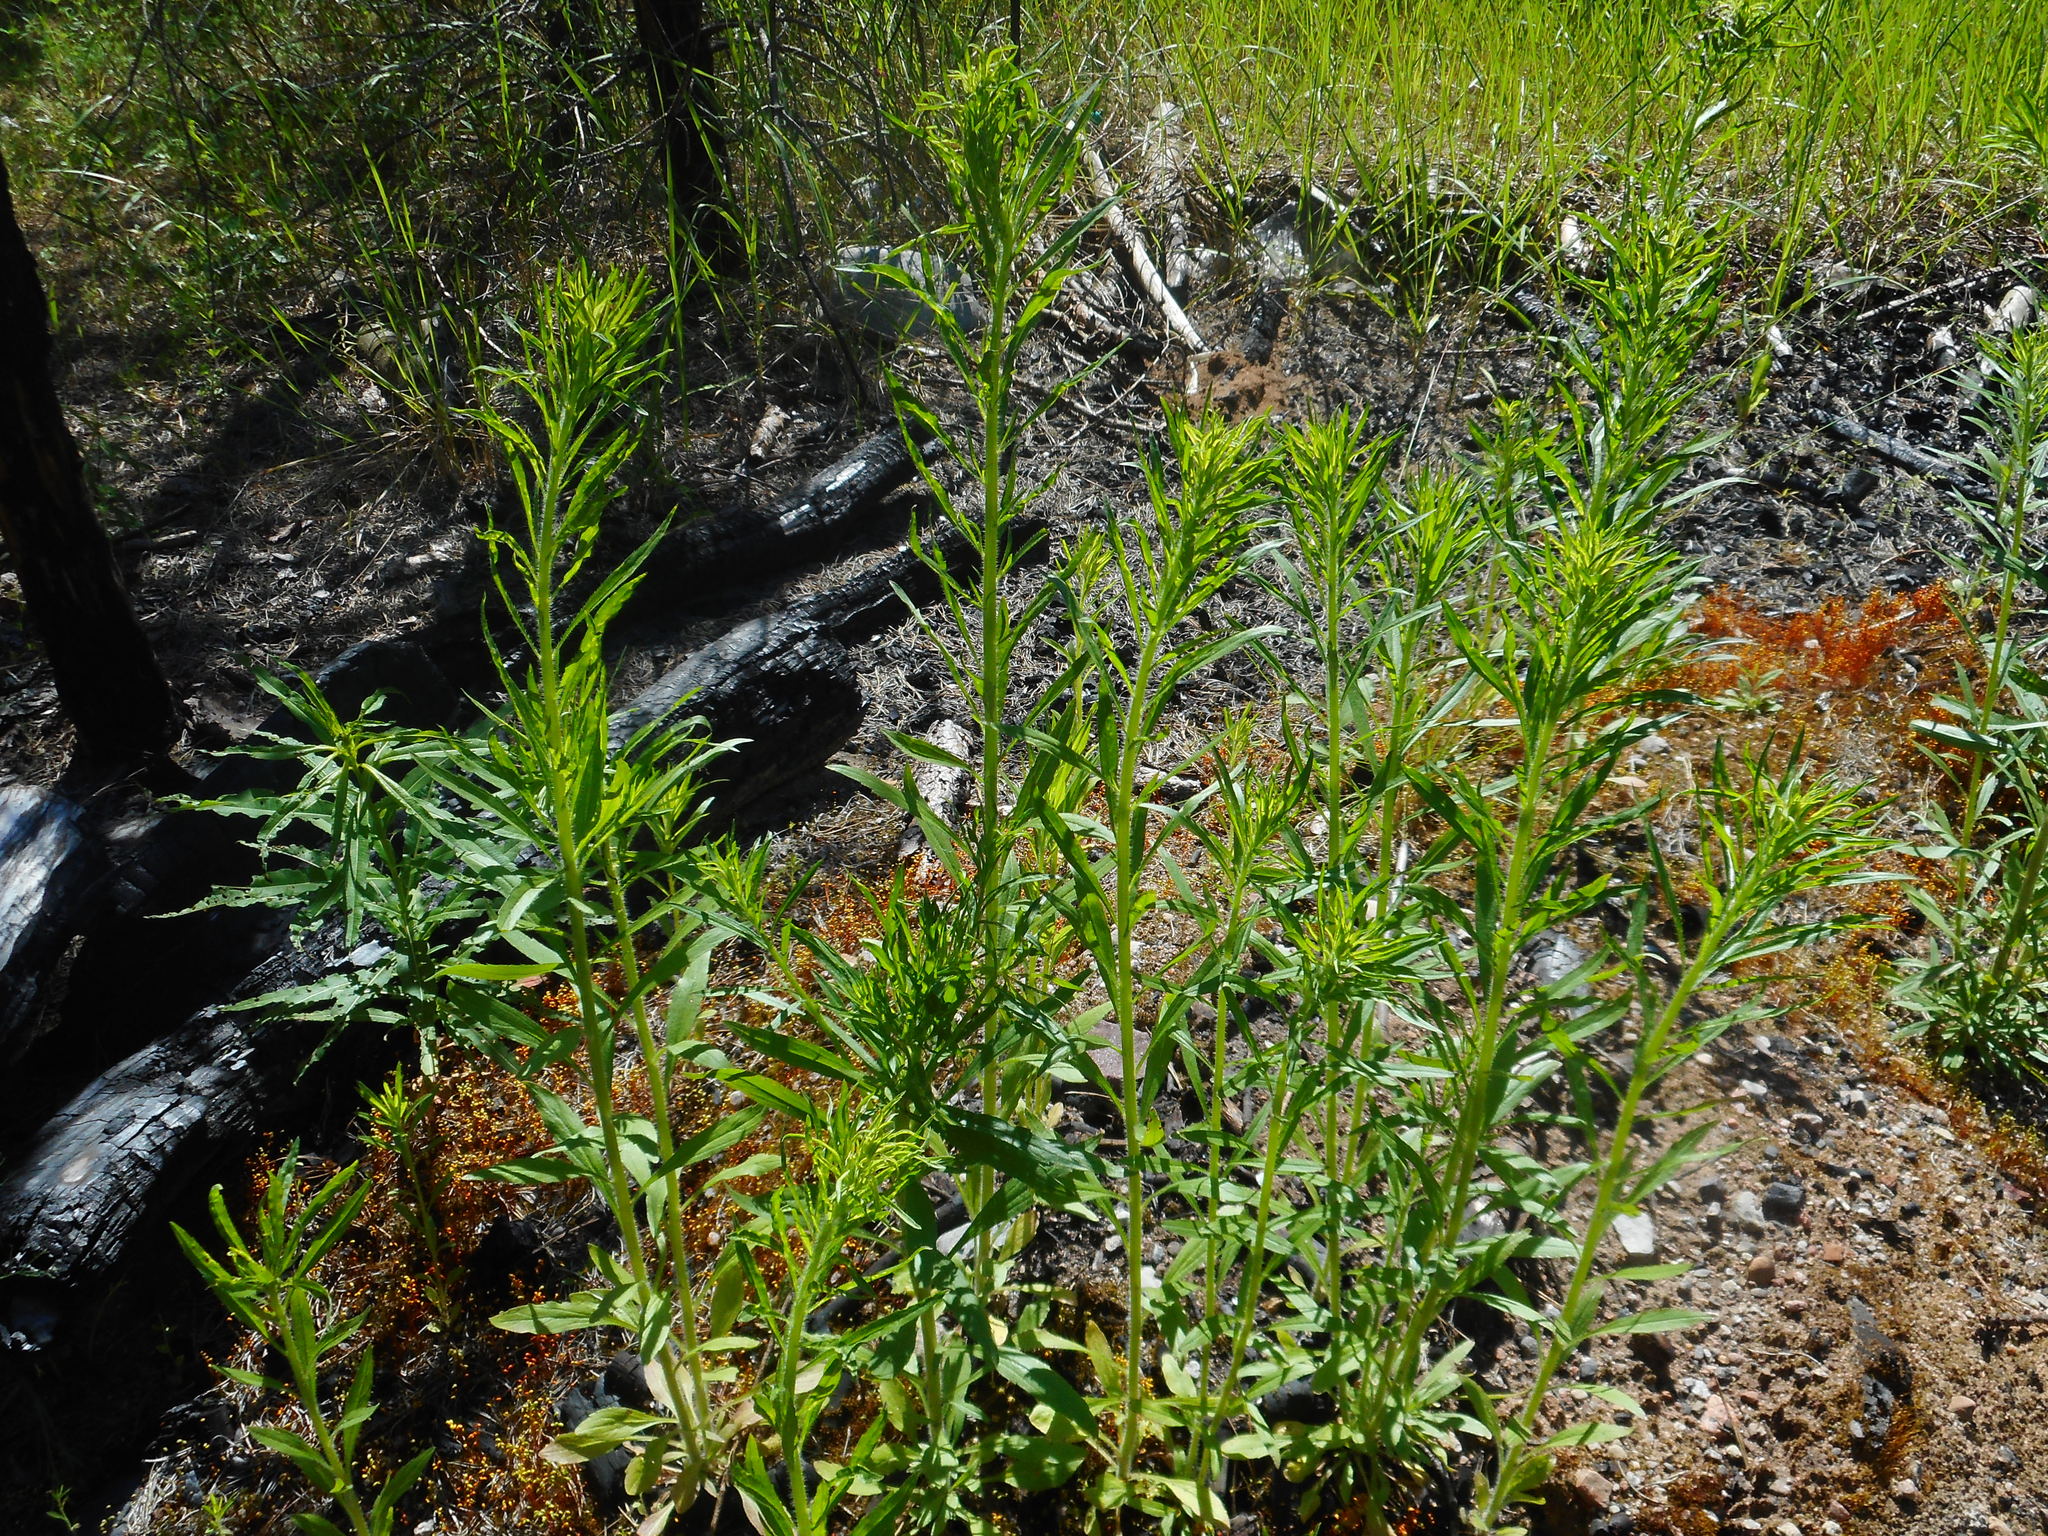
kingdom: Plantae
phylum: Tracheophyta
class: Magnoliopsida
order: Asterales
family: Asteraceae
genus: Erigeron
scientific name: Erigeron canadensis
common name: Canadian fleabane
